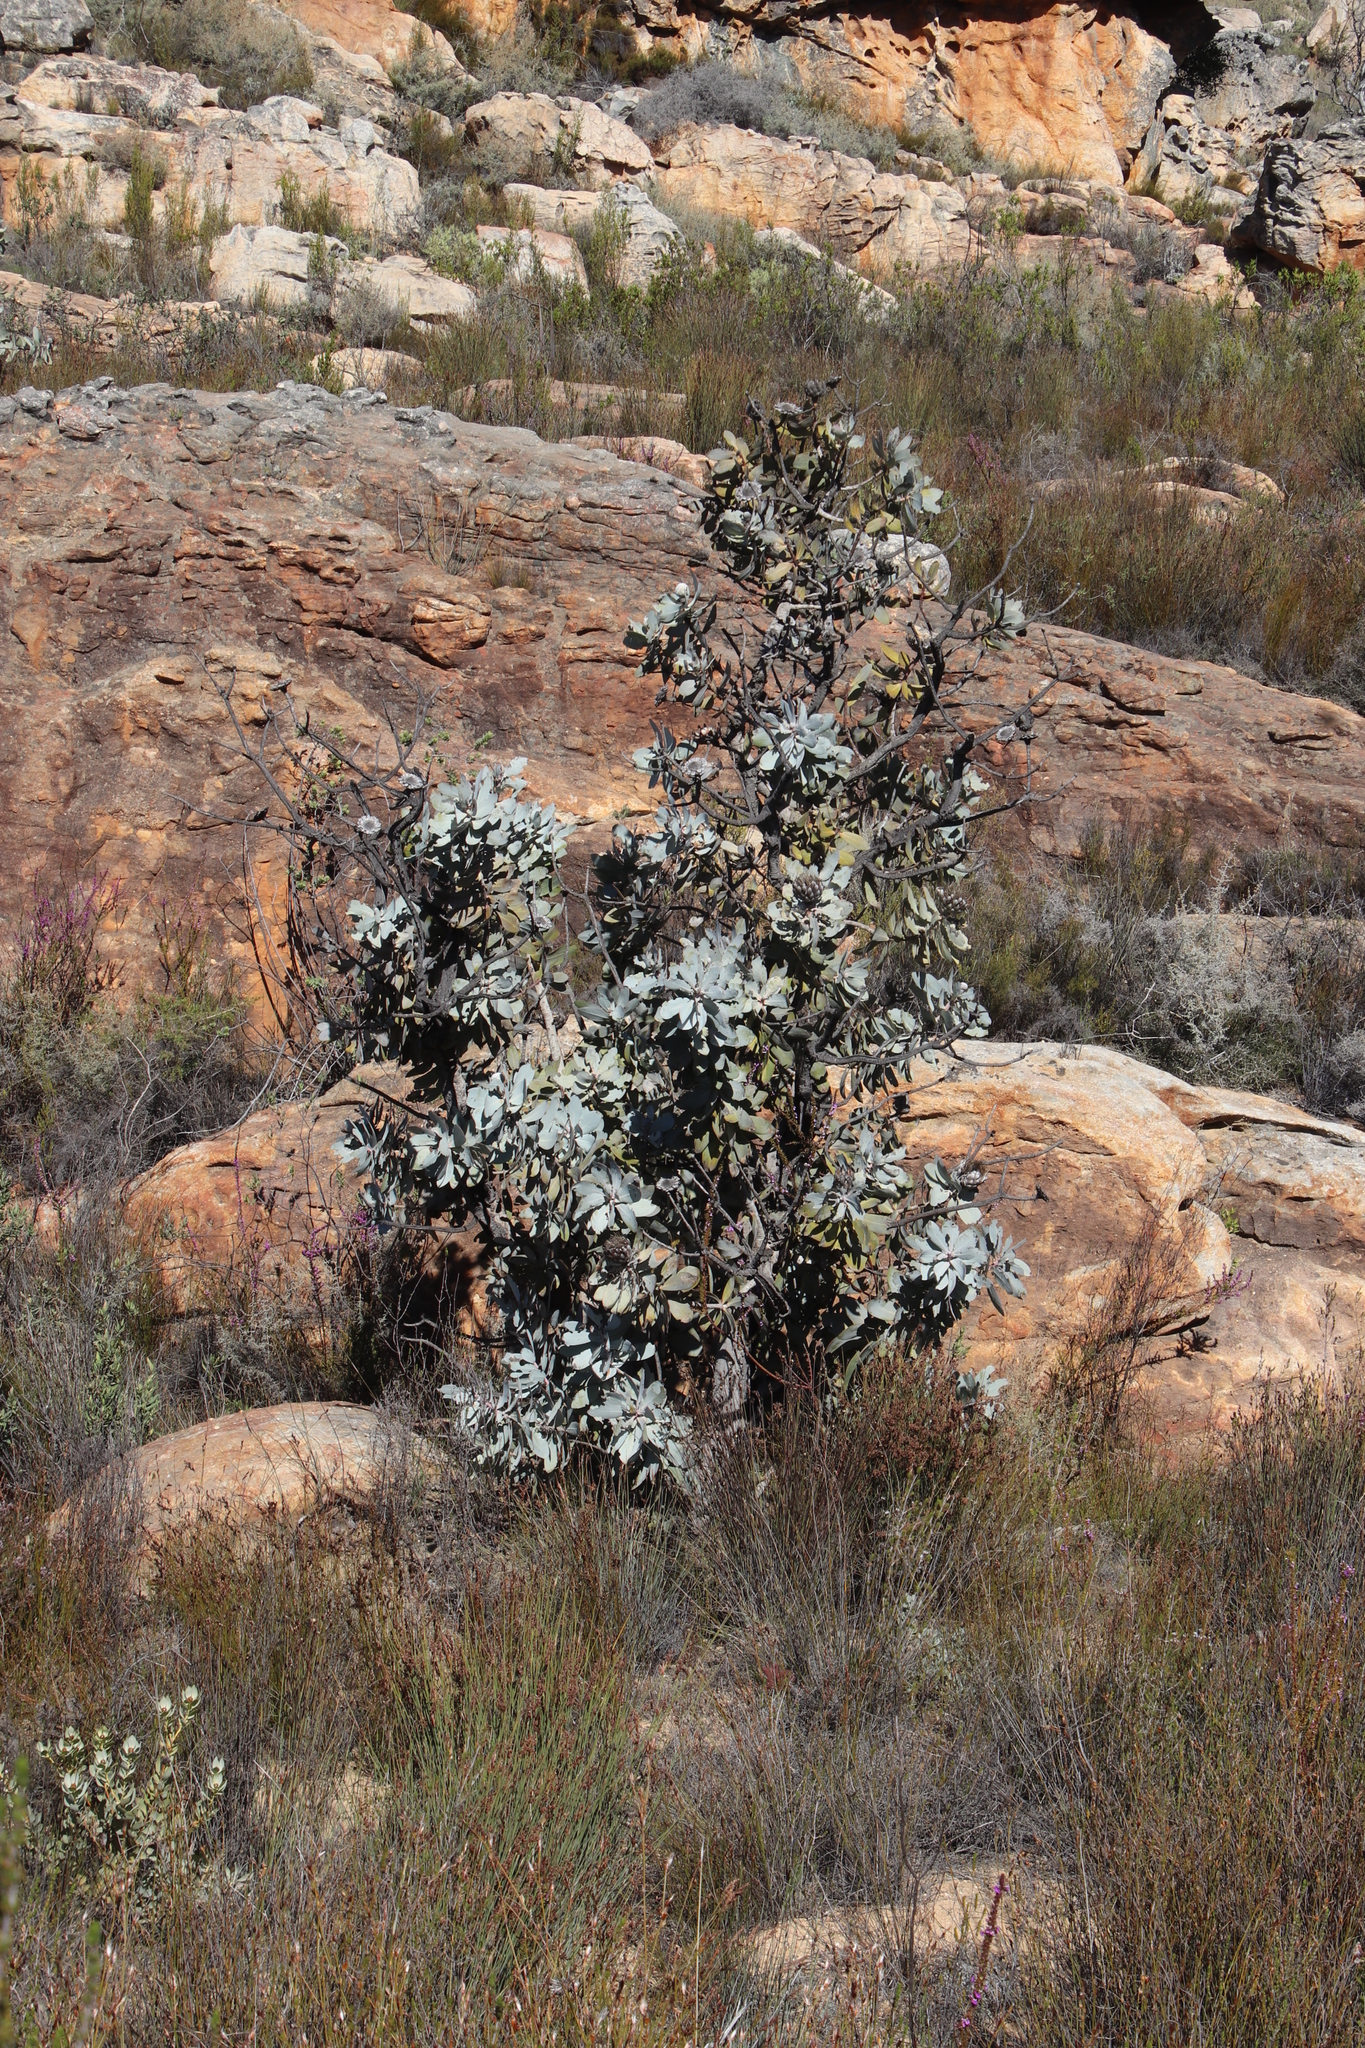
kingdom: Plantae
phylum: Tracheophyta
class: Magnoliopsida
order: Proteales
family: Proteaceae
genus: Protea
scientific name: Protea nitida
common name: Tree protea
